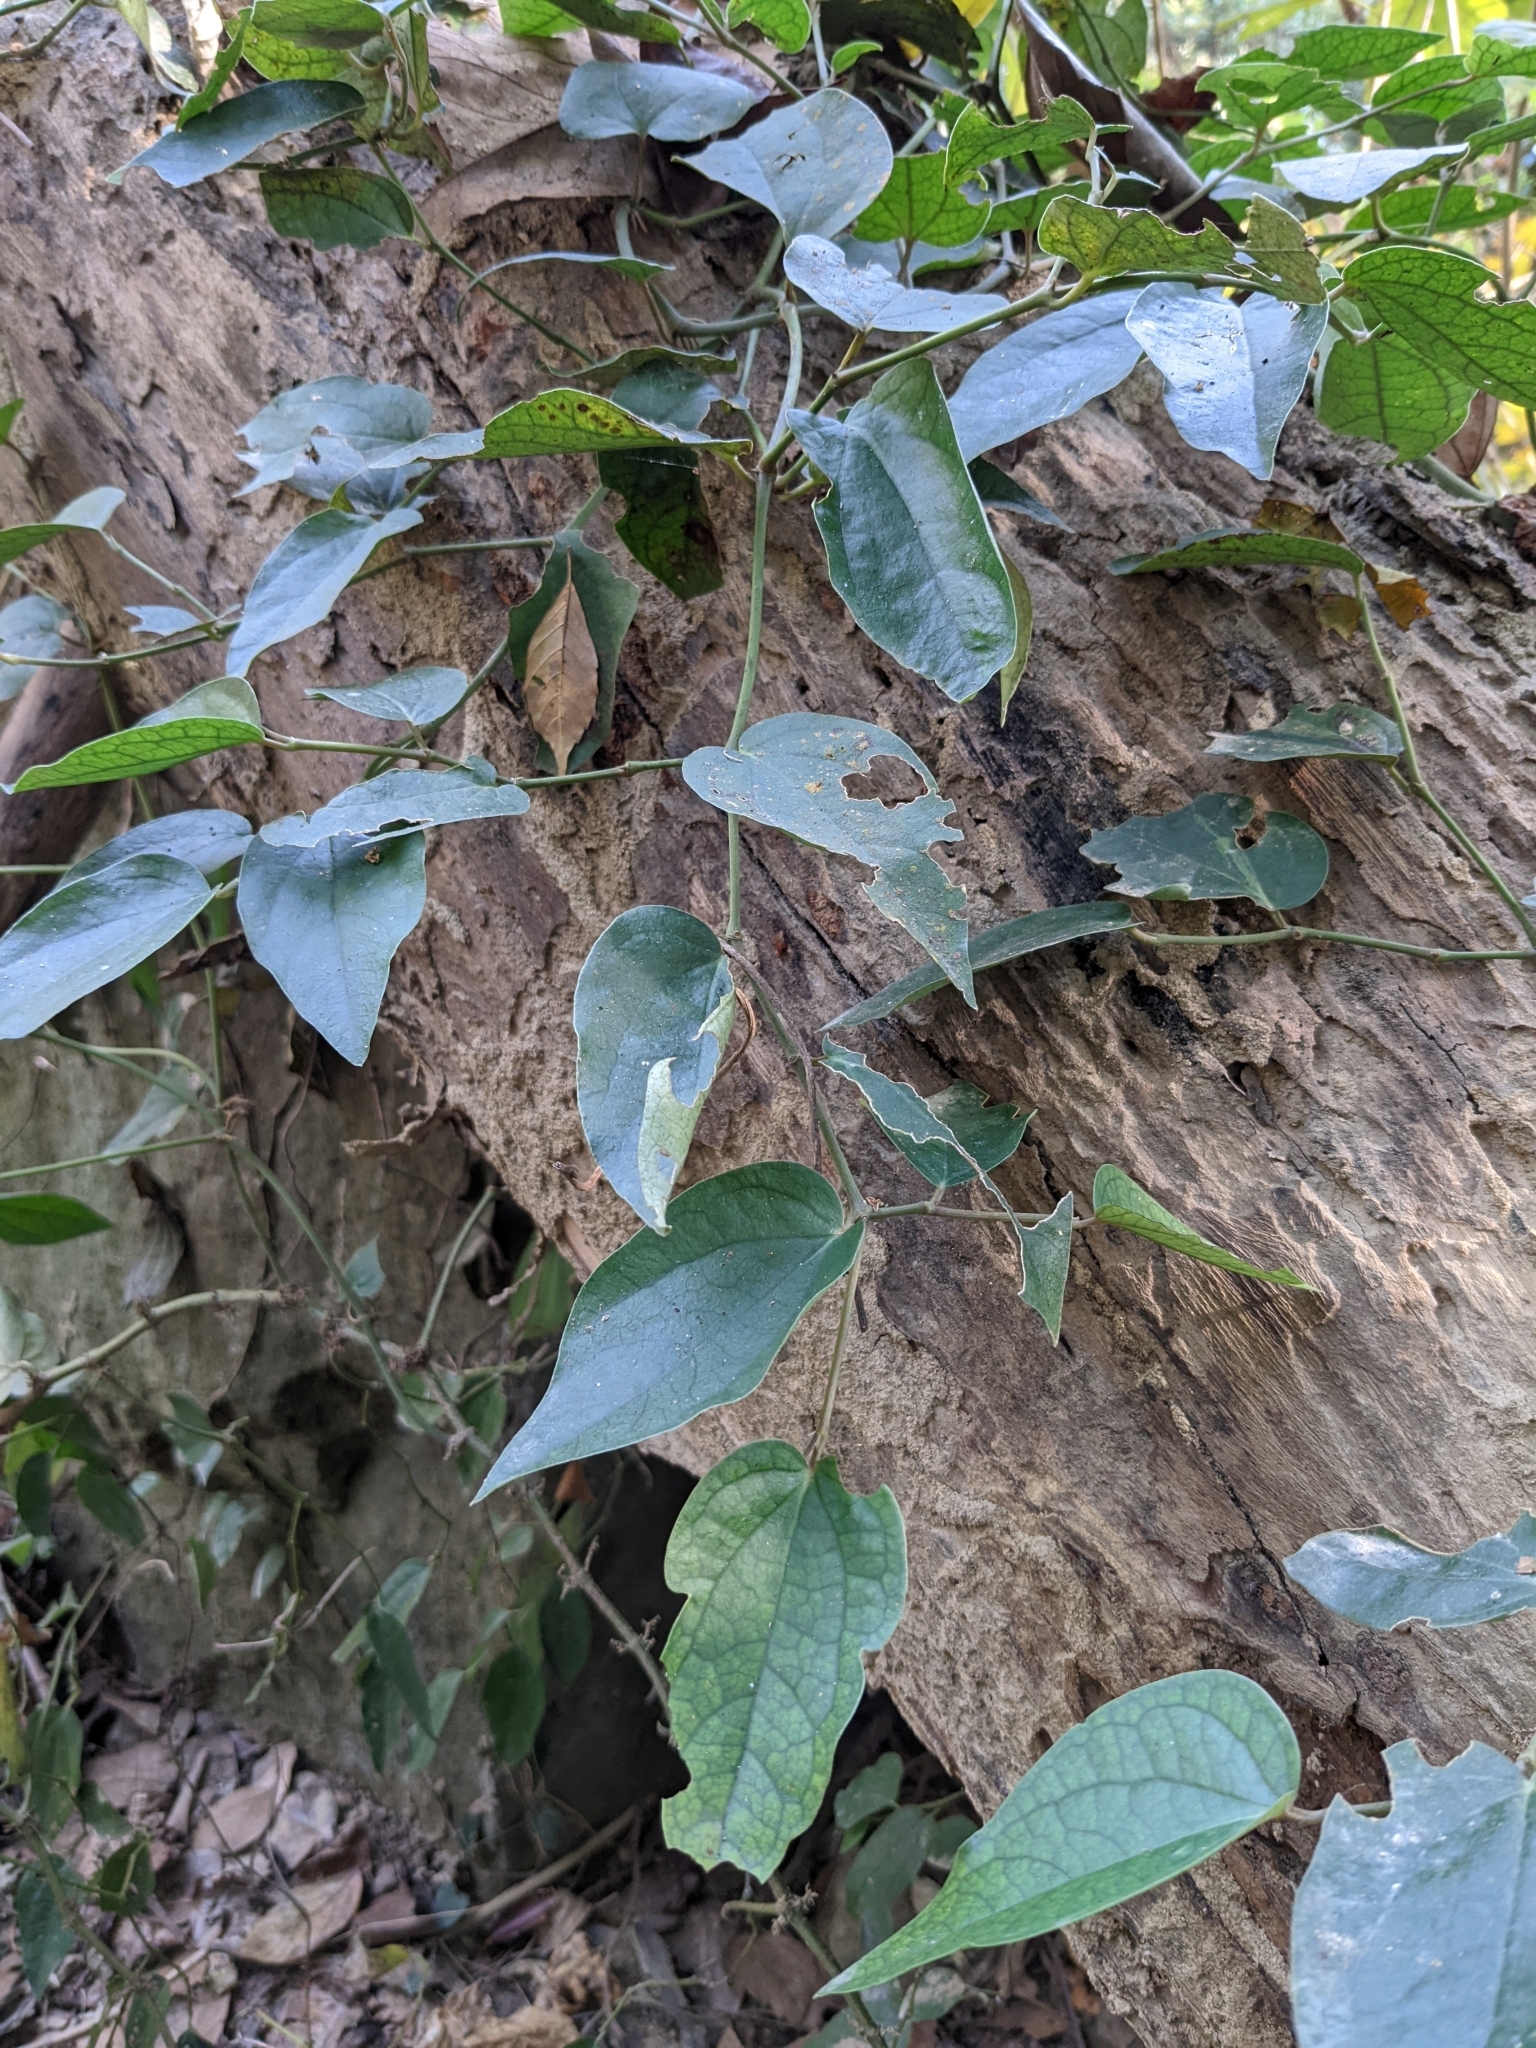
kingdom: Plantae
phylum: Tracheophyta
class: Magnoliopsida
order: Piperales
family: Piperaceae
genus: Piper
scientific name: Piper kadsura
